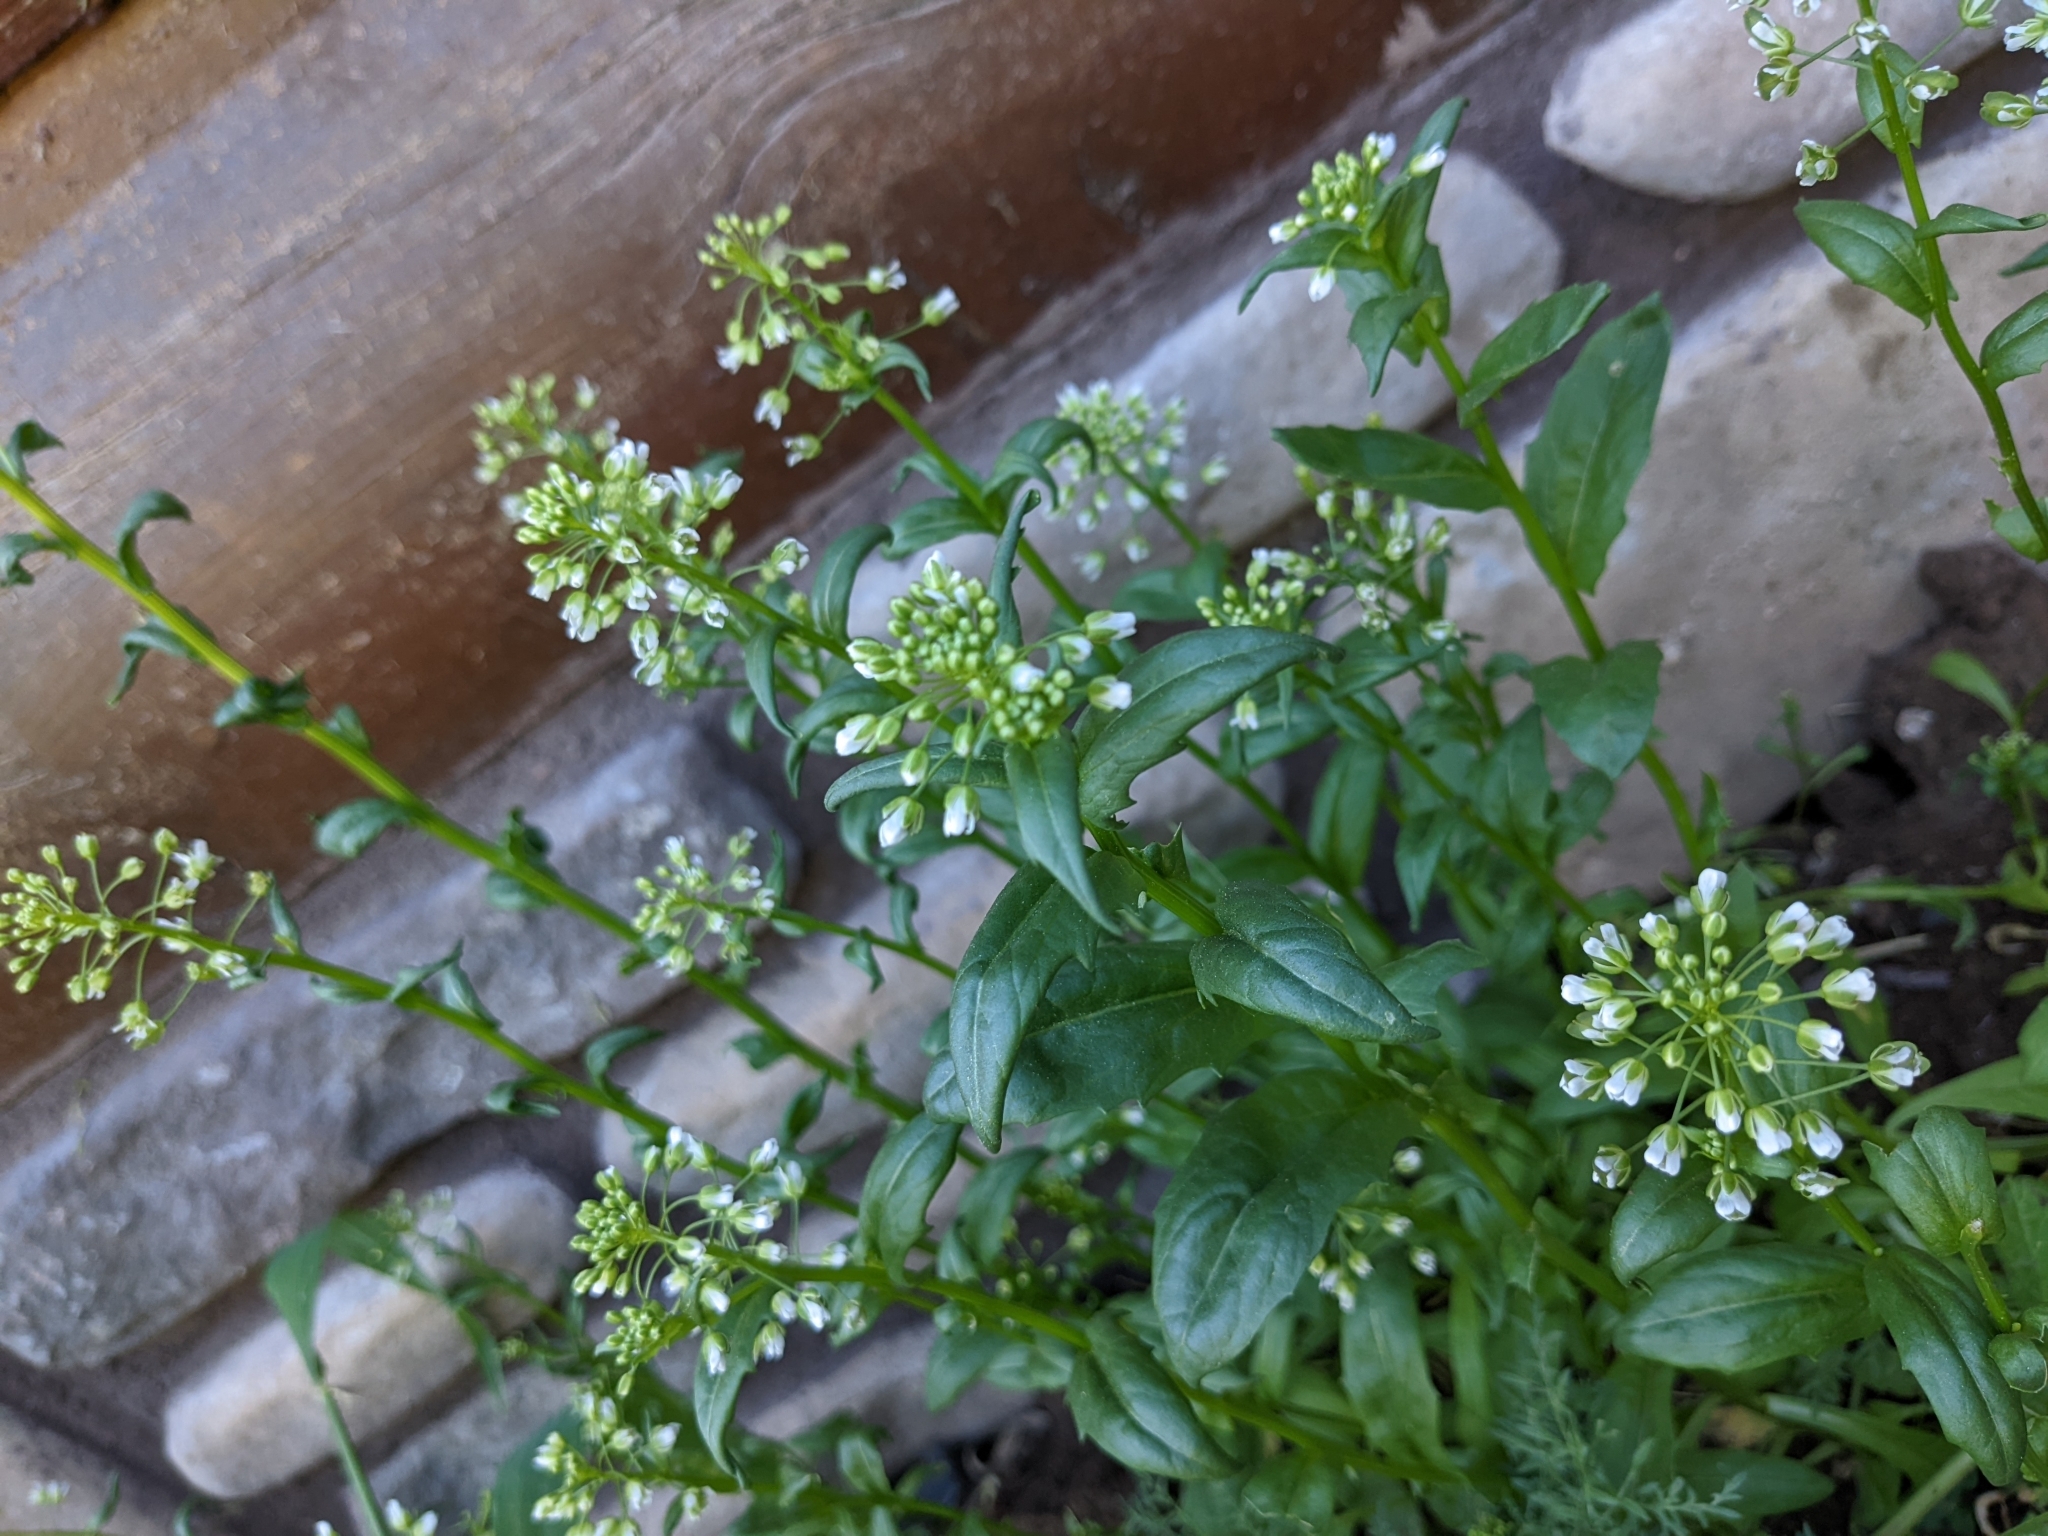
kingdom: Plantae
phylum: Tracheophyta
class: Magnoliopsida
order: Brassicales
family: Brassicaceae
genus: Thlaspi
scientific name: Thlaspi arvense
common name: Field pennycress
